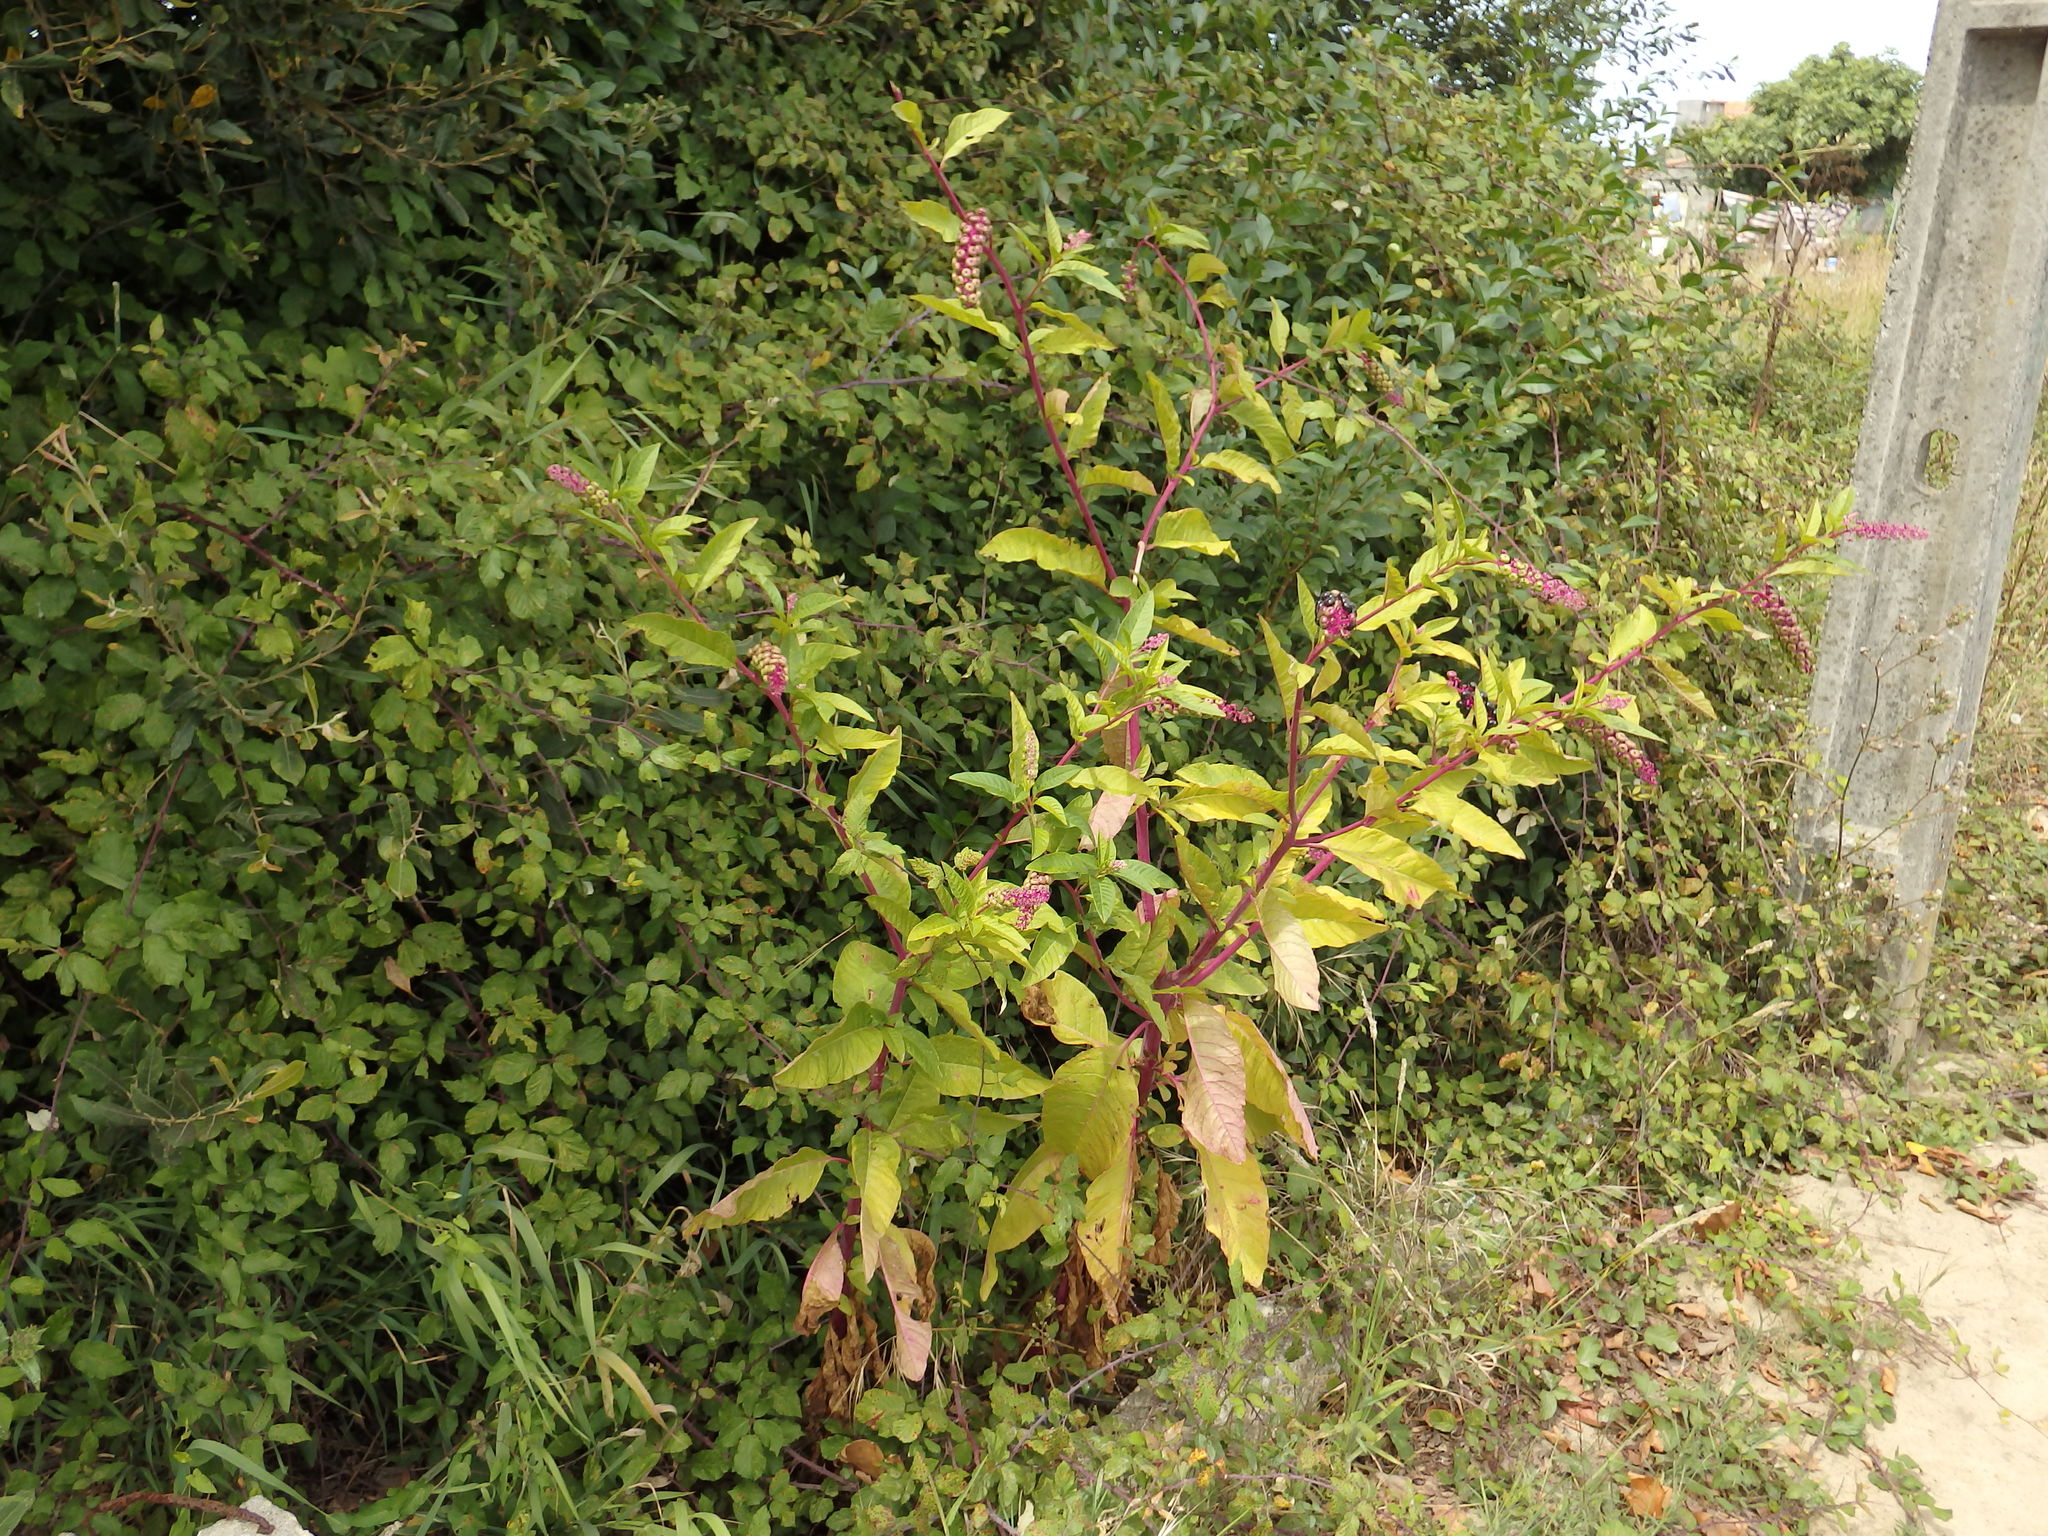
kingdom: Plantae
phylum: Tracheophyta
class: Magnoliopsida
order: Caryophyllales
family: Phytolaccaceae
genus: Phytolacca
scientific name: Phytolacca americana
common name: American pokeweed
